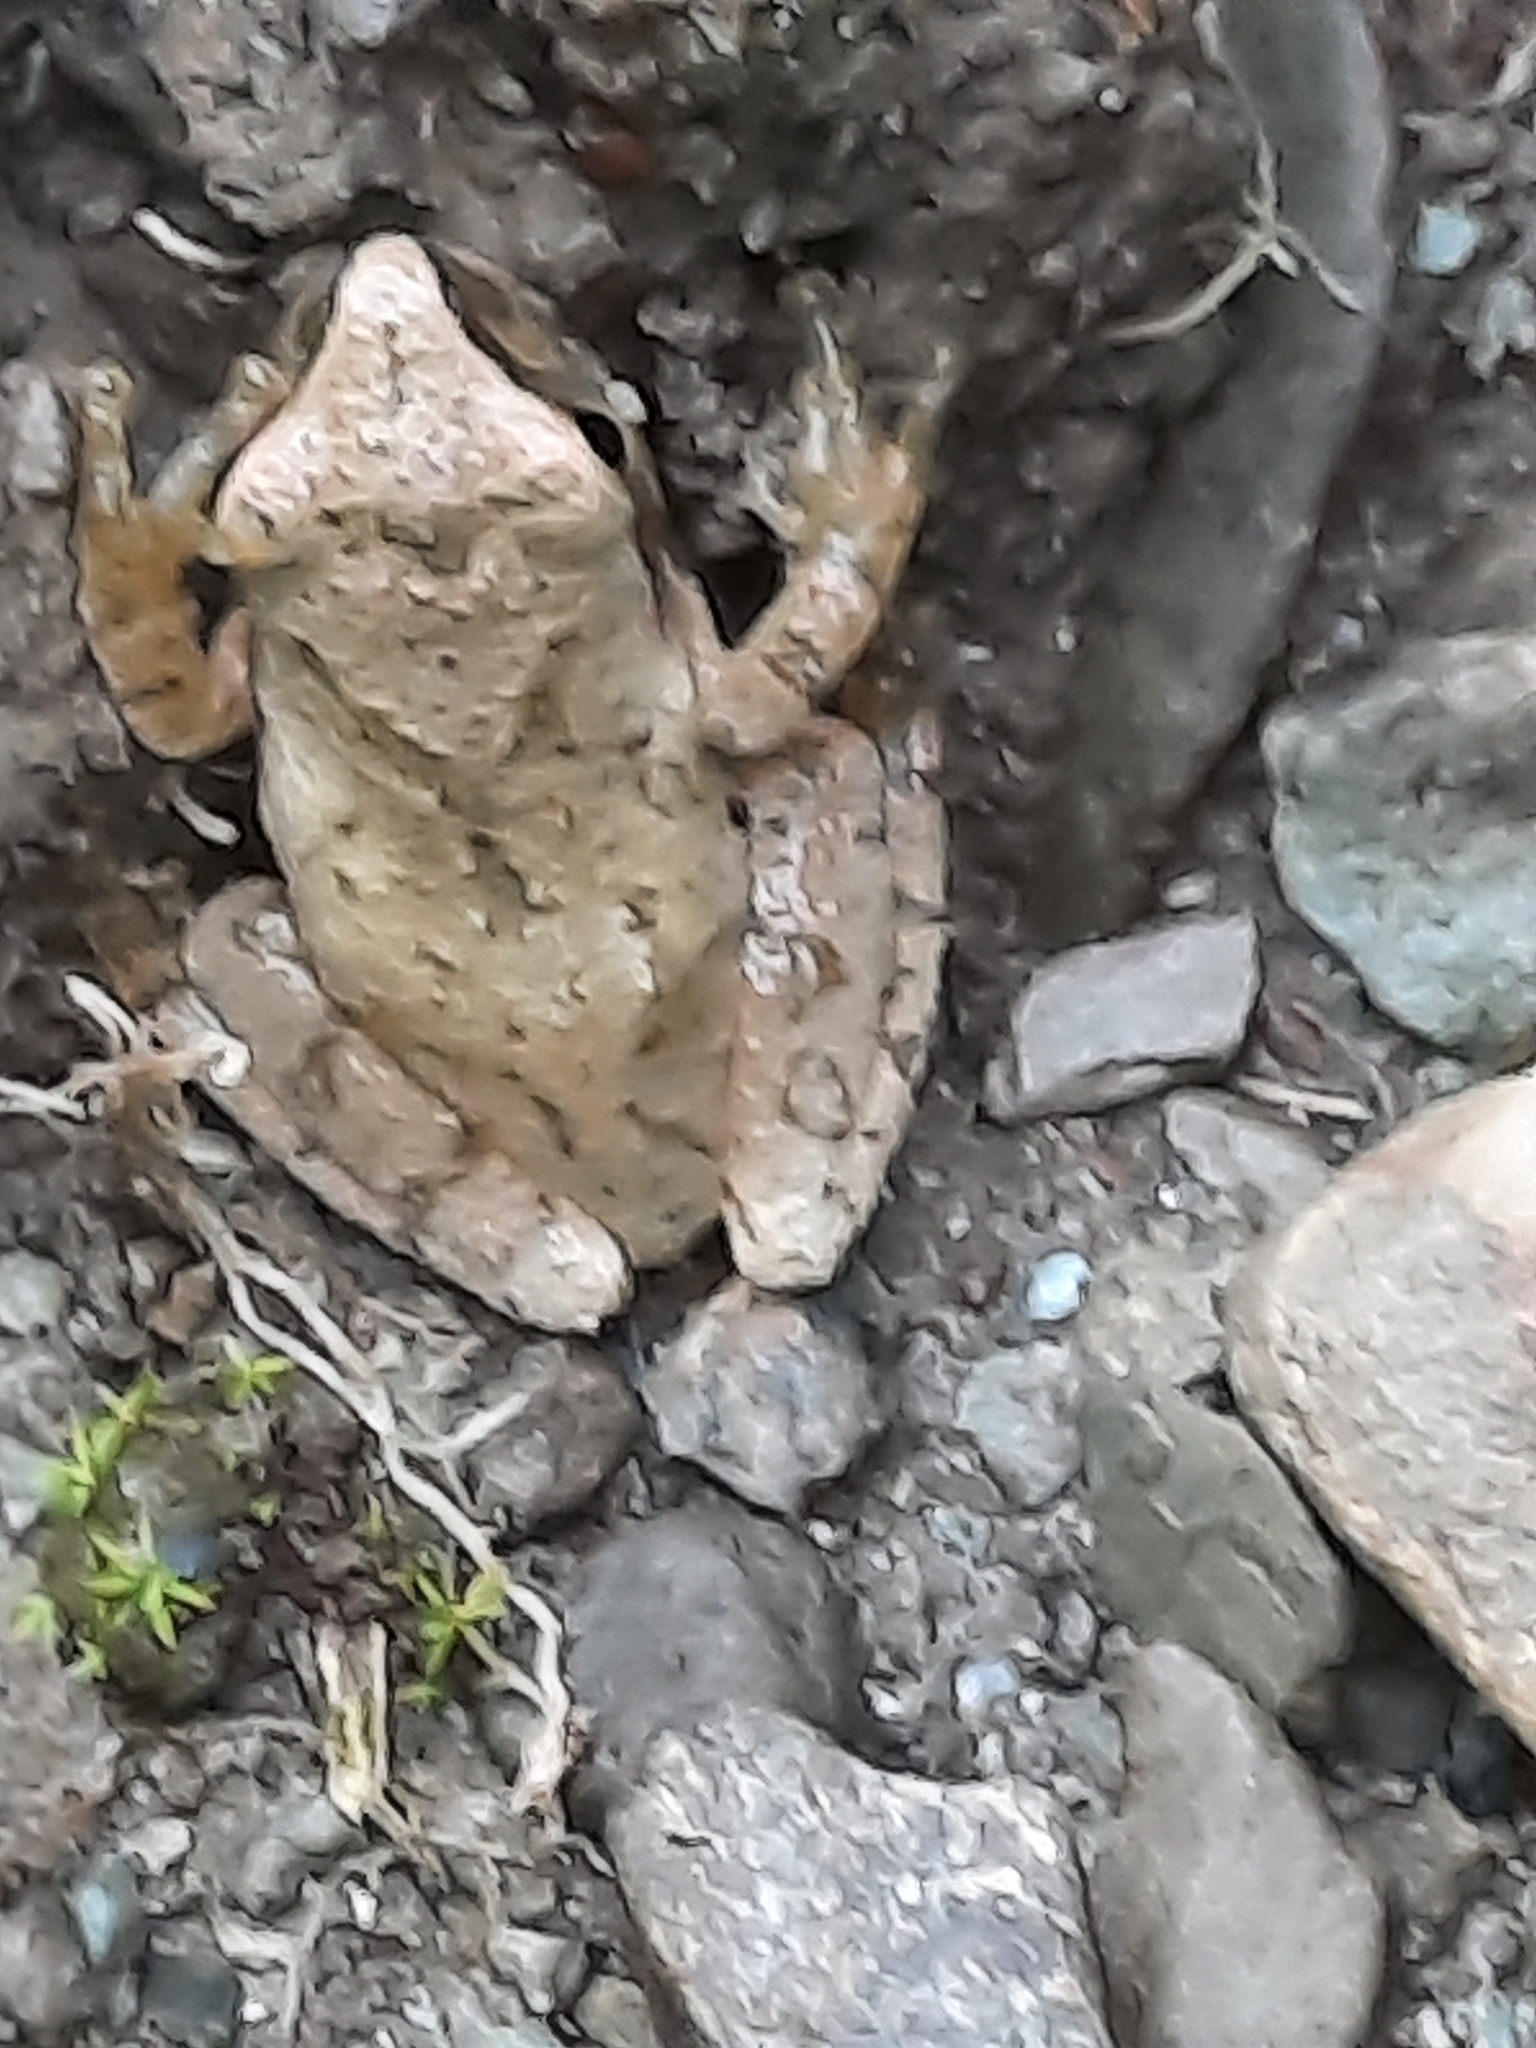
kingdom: Animalia
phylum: Chordata
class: Amphibia
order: Anura
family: Hylidae
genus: Pseudacris
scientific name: Pseudacris crucifer
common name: Spring peeper
